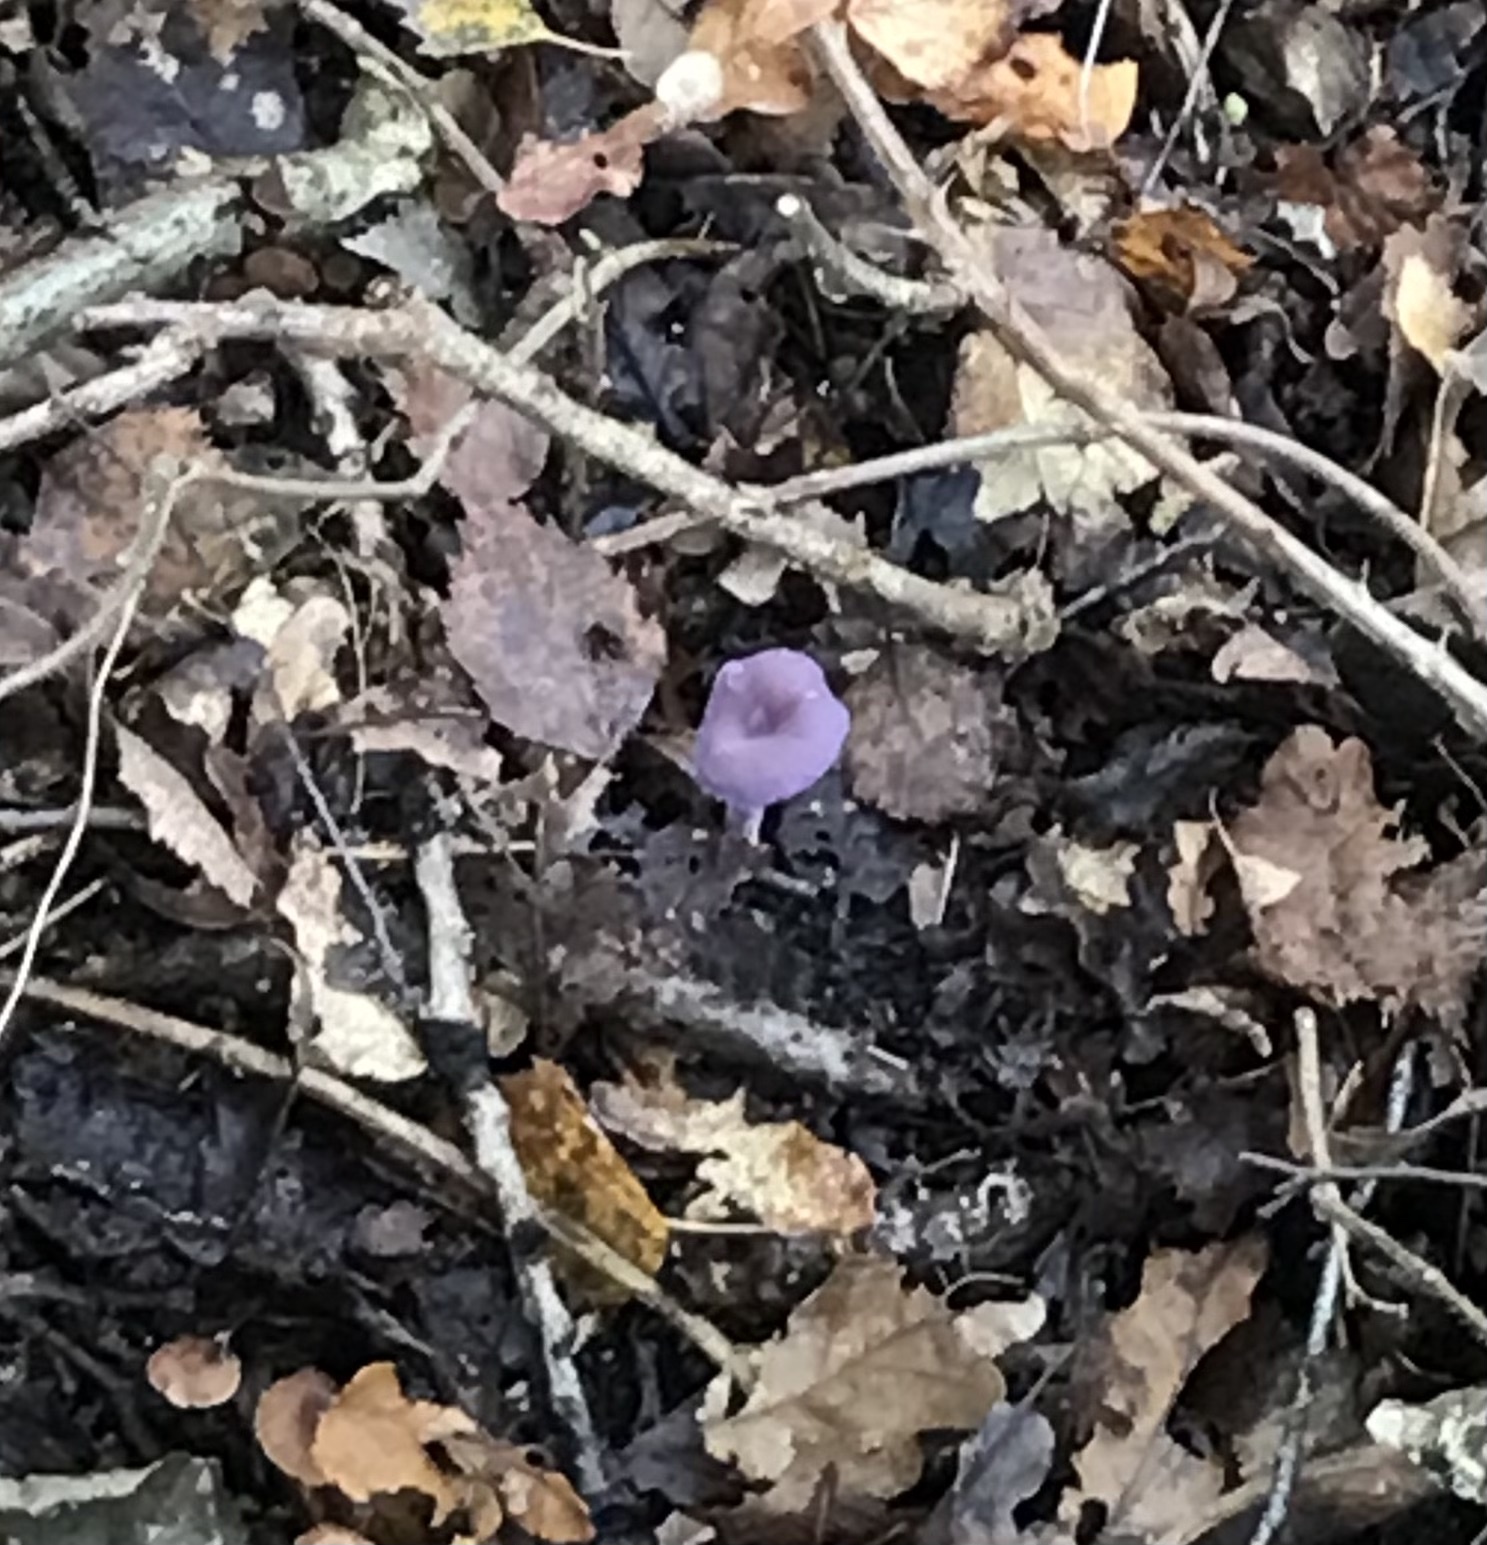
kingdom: Fungi
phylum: Basidiomycota
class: Agaricomycetes
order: Agaricales
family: Hydnangiaceae
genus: Laccaria
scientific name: Laccaria amethystina
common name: Amethyst deceiver
